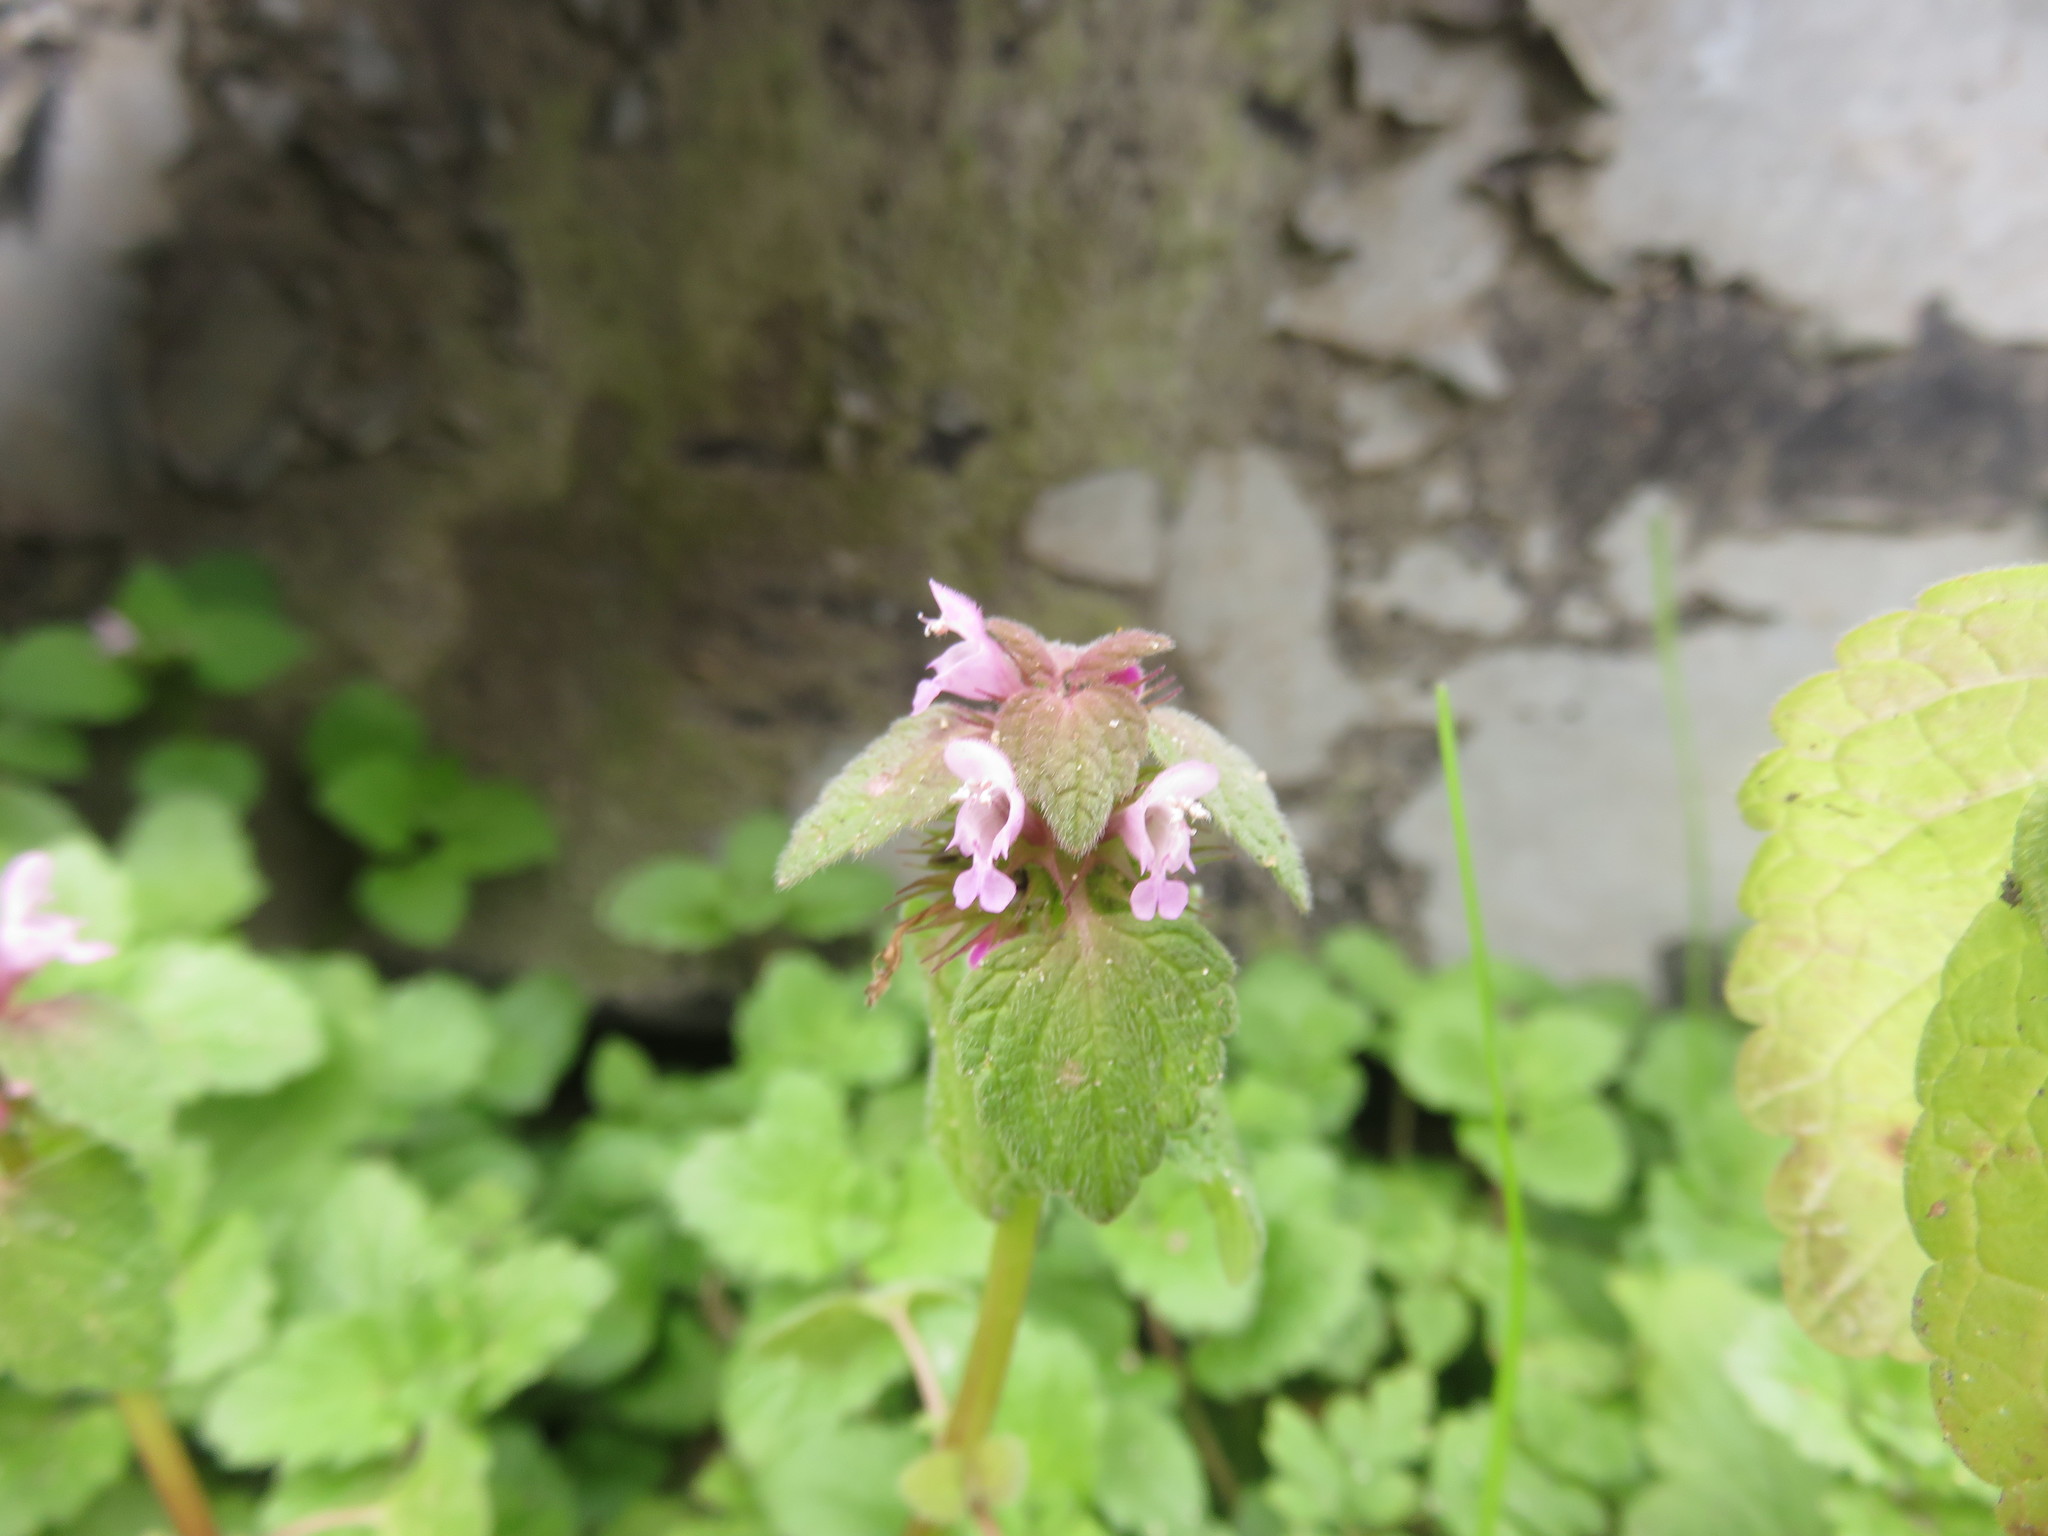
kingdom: Plantae
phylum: Tracheophyta
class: Magnoliopsida
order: Lamiales
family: Lamiaceae
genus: Lamium
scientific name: Lamium purpureum
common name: Red dead-nettle
